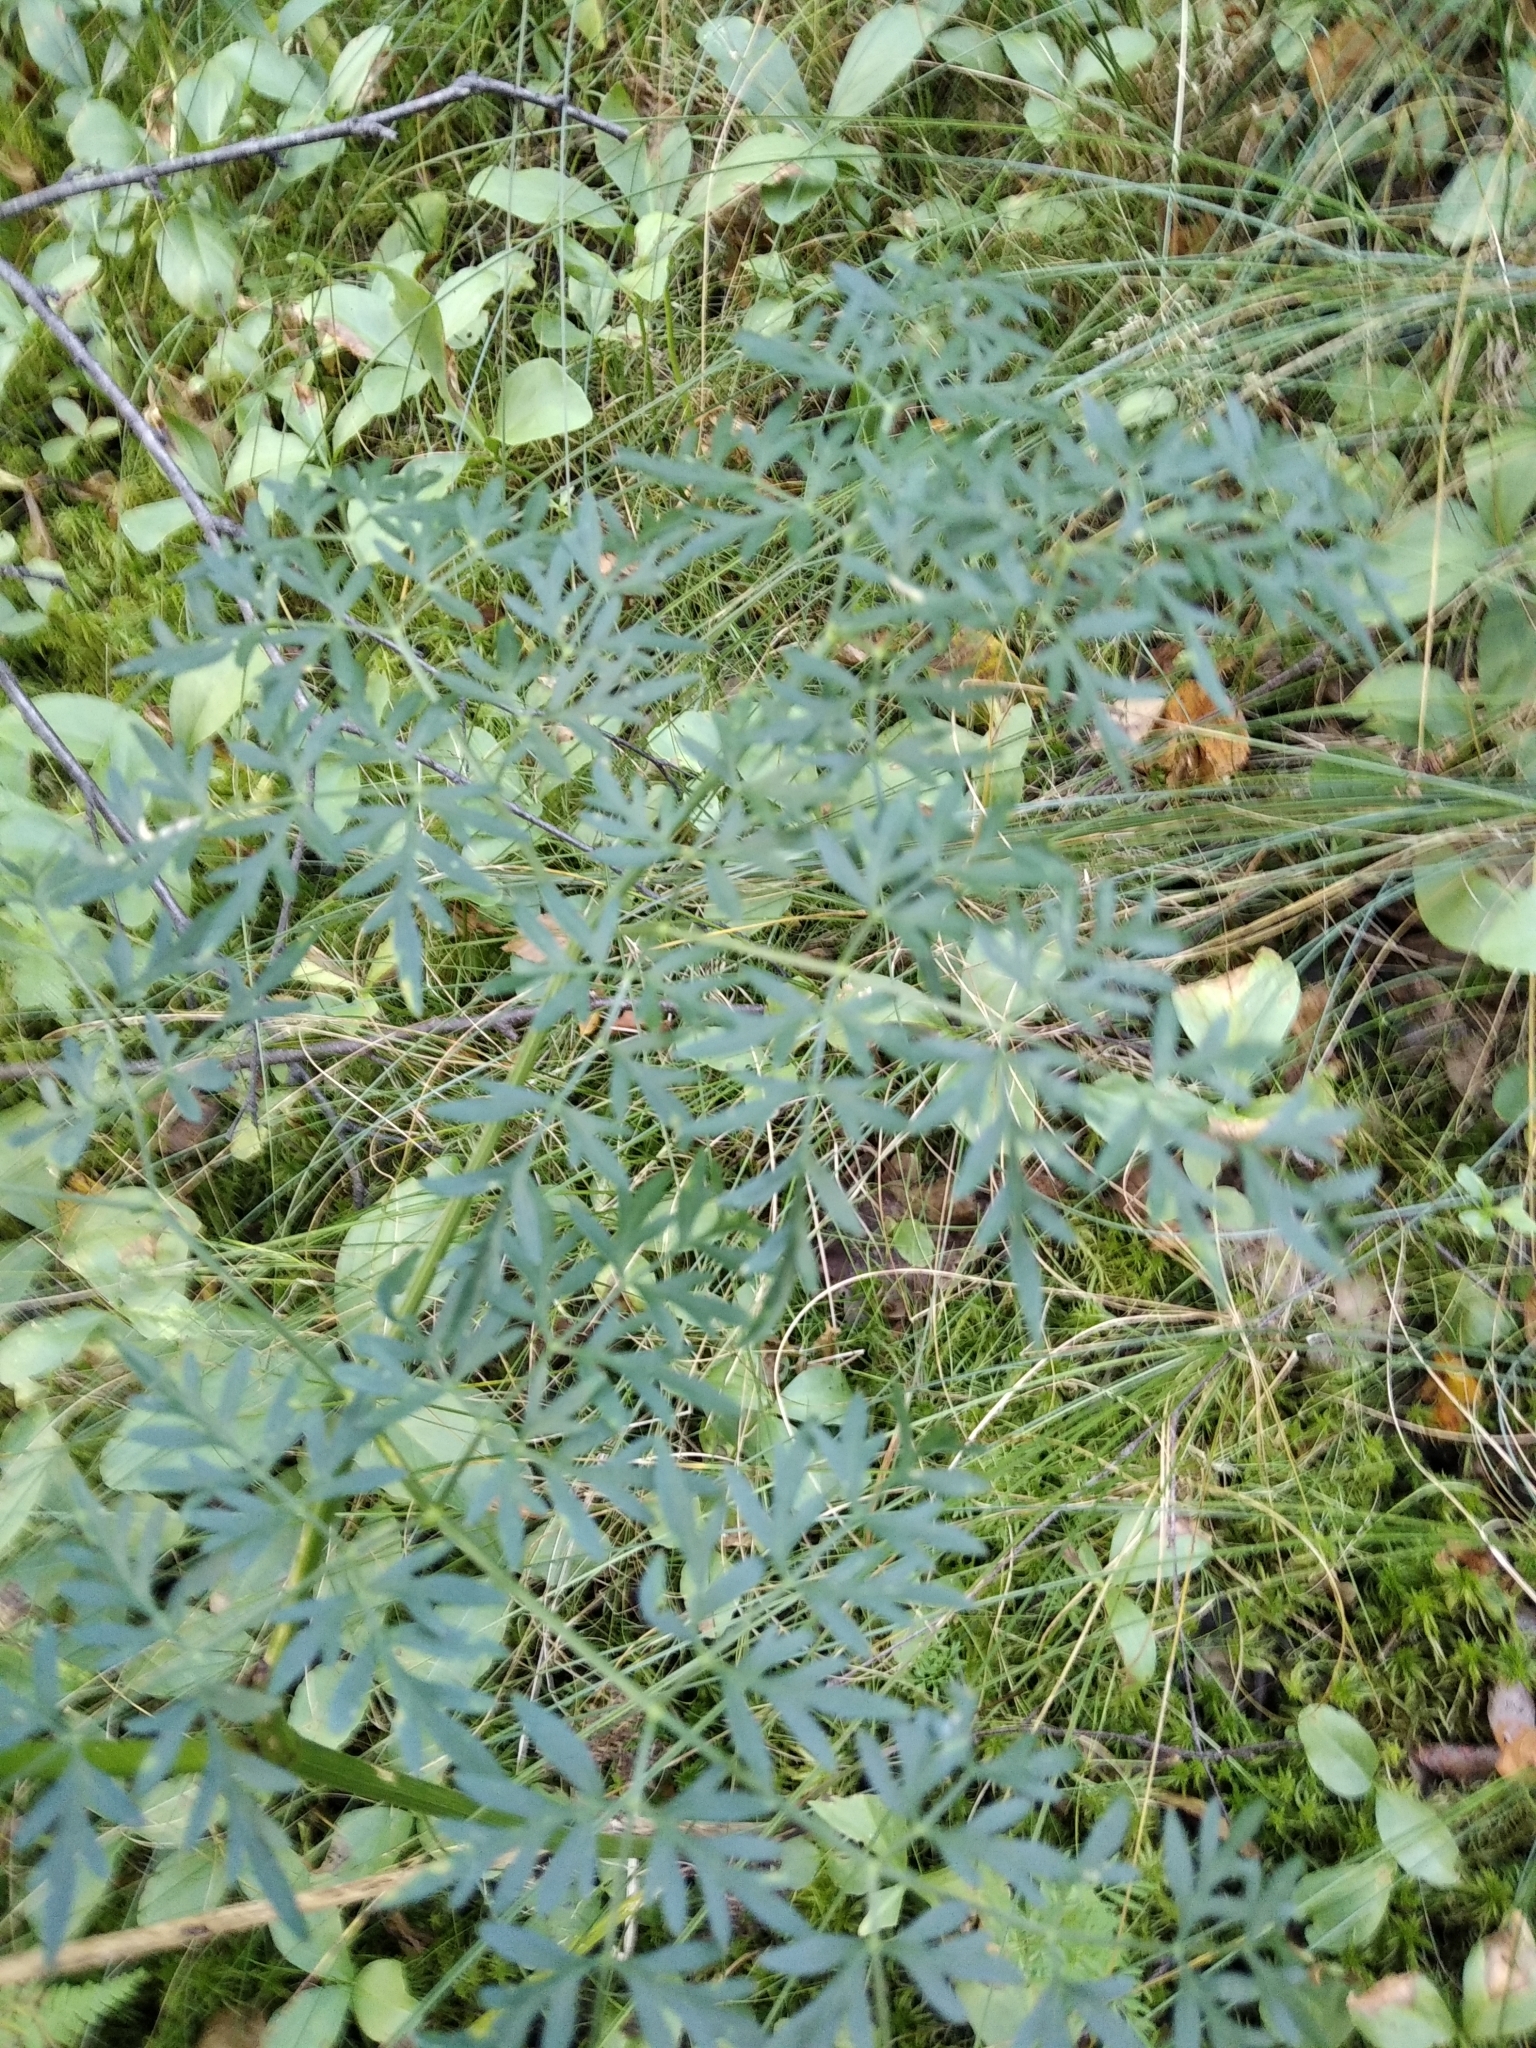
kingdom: Plantae
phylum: Tracheophyta
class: Magnoliopsida
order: Apiales
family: Apiaceae
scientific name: Apiaceae
